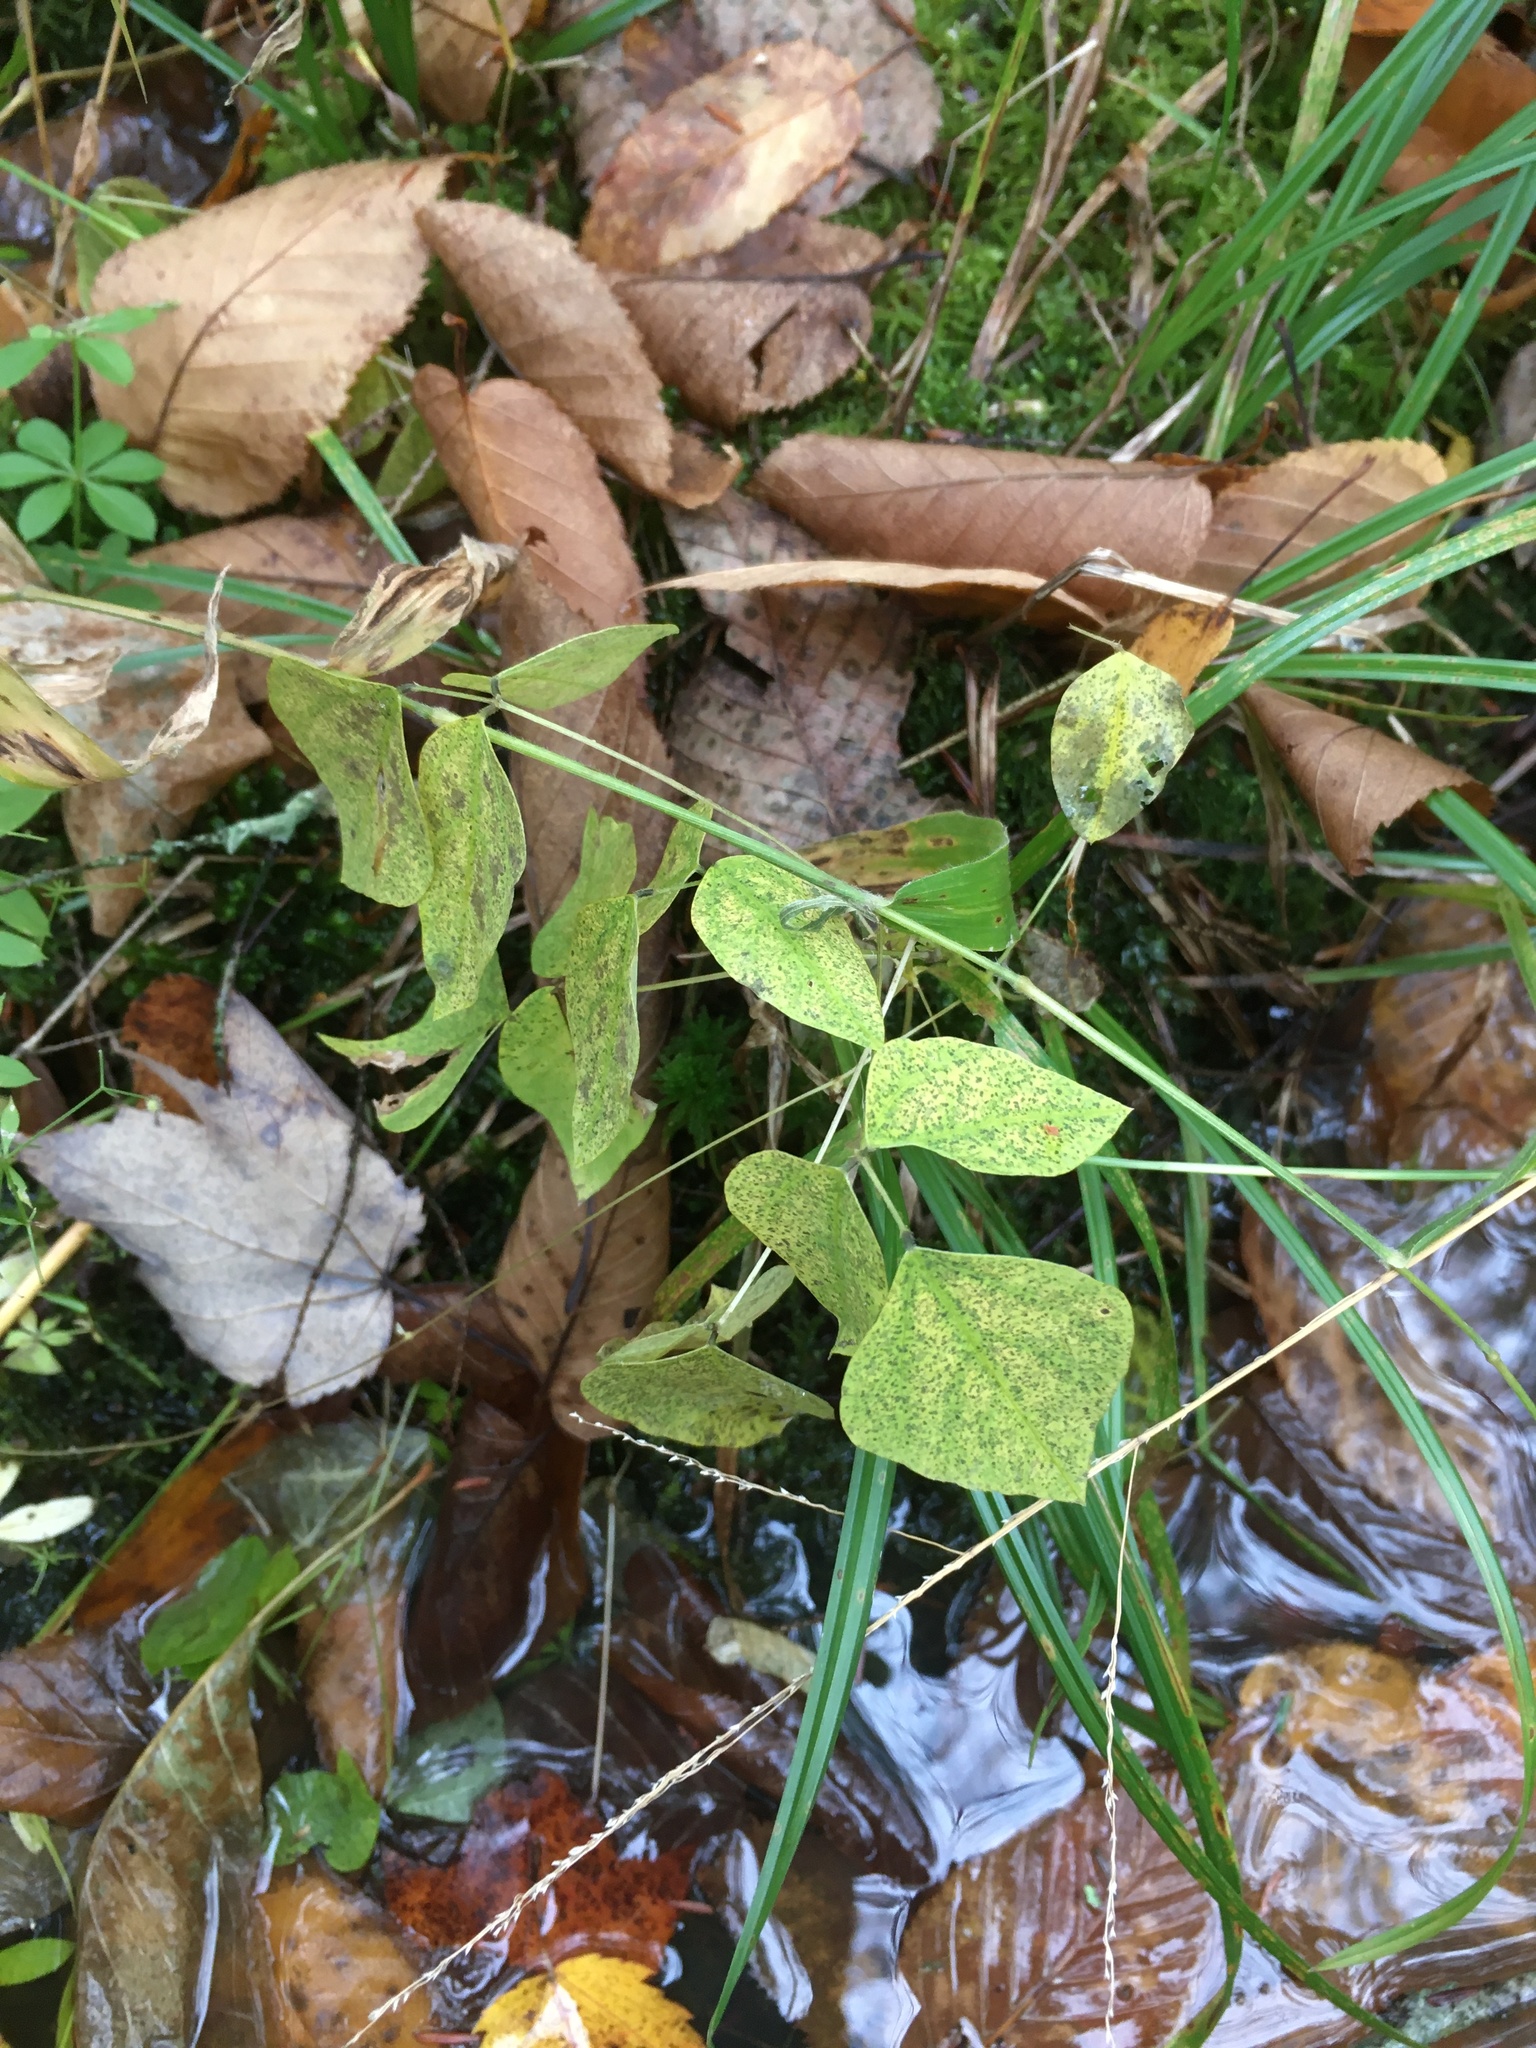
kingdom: Plantae
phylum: Tracheophyta
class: Magnoliopsida
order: Fabales
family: Fabaceae
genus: Amphicarpaea
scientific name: Amphicarpaea bracteata
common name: American hog peanut
